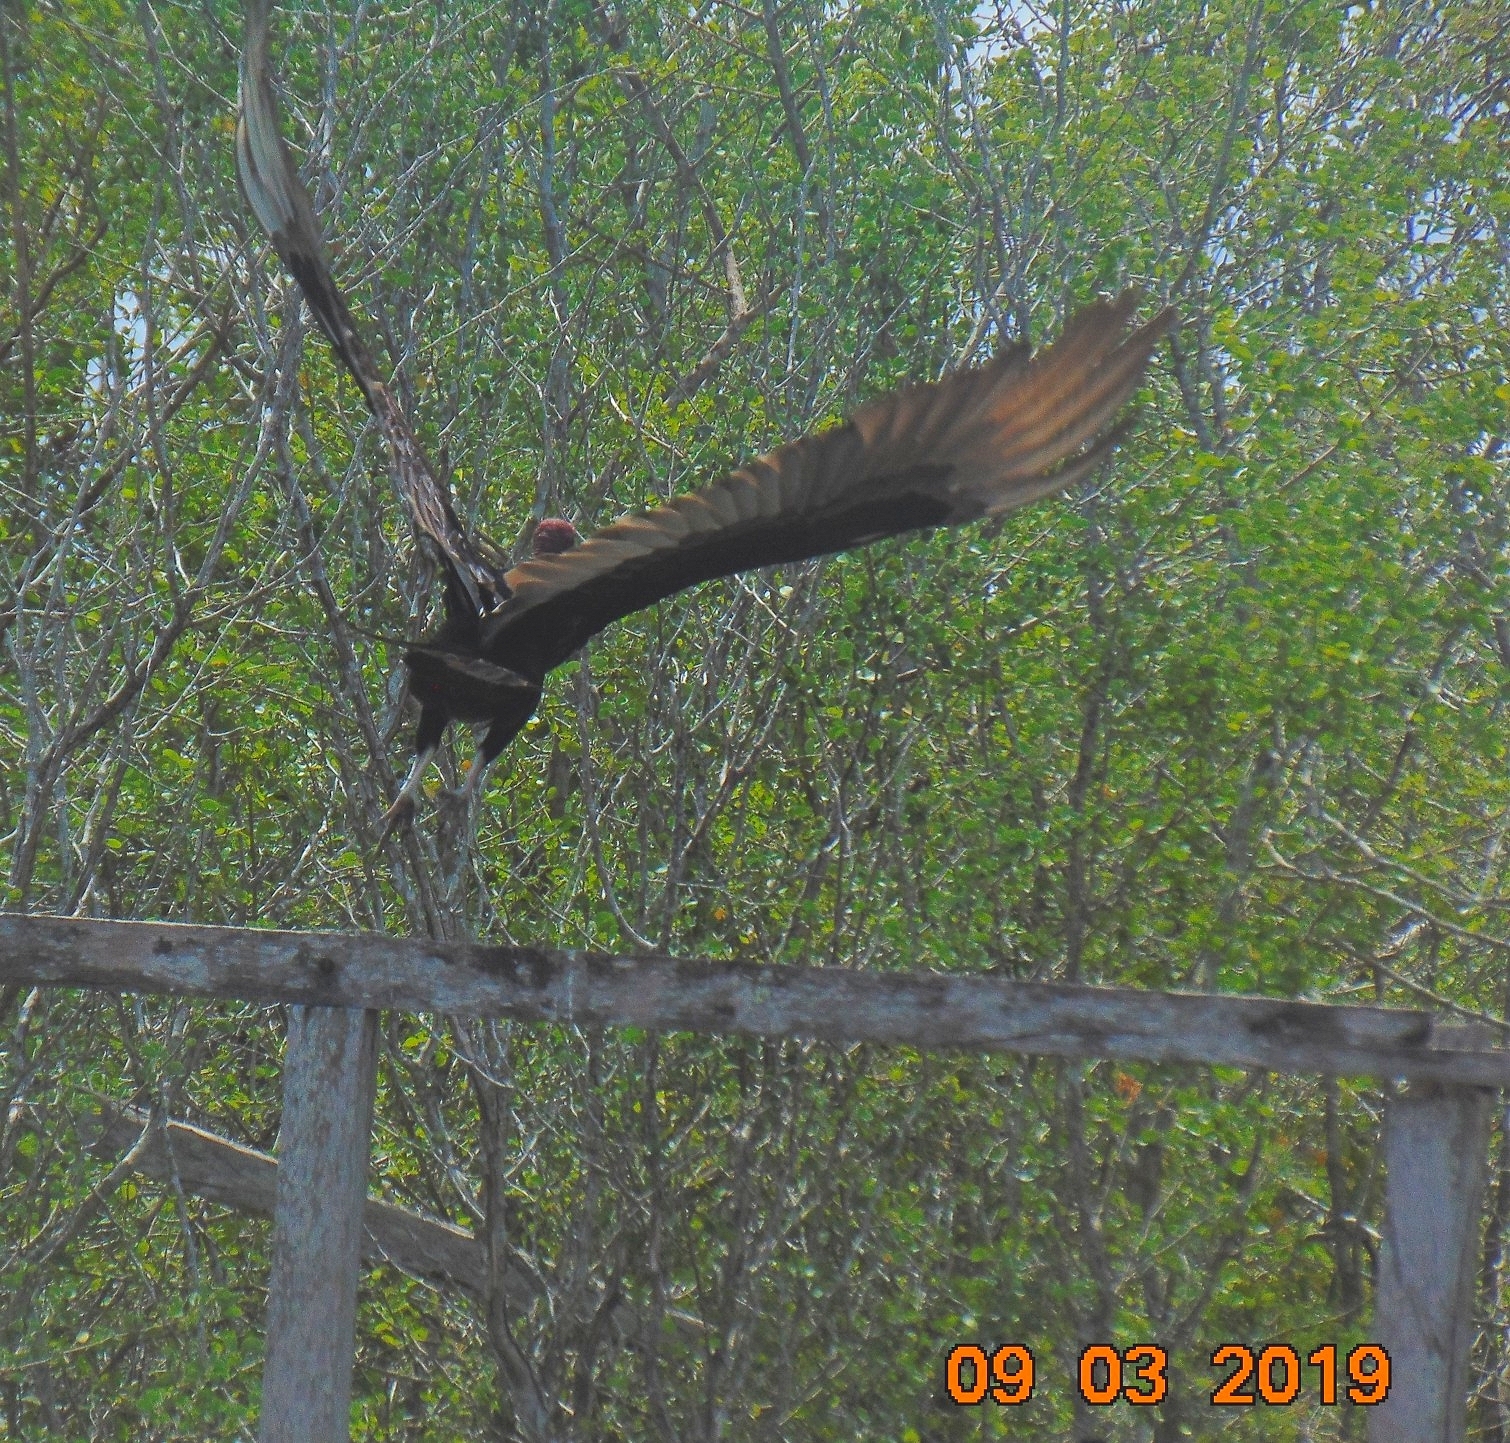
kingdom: Animalia
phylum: Chordata
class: Aves
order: Accipitriformes
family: Cathartidae
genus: Cathartes
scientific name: Cathartes aura
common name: Turkey vulture
